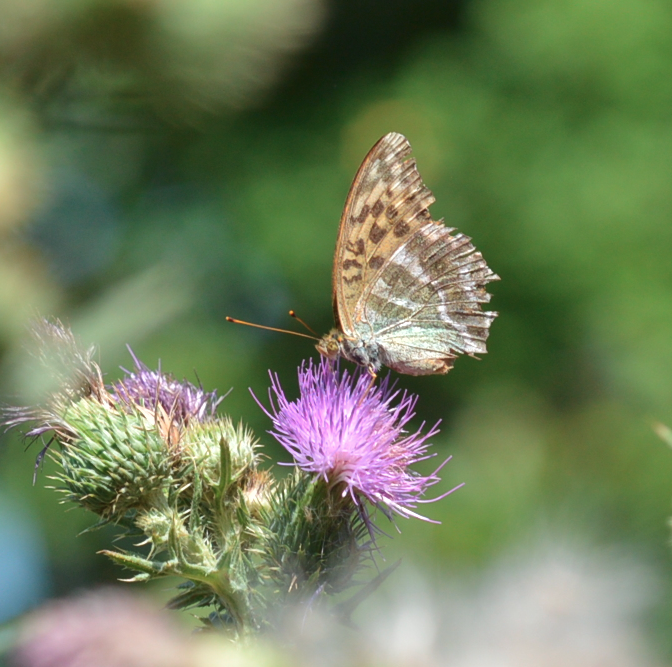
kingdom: Animalia
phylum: Arthropoda
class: Insecta
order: Lepidoptera
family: Nymphalidae
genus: Argynnis
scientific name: Argynnis paphia
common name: Silver-washed fritillary
